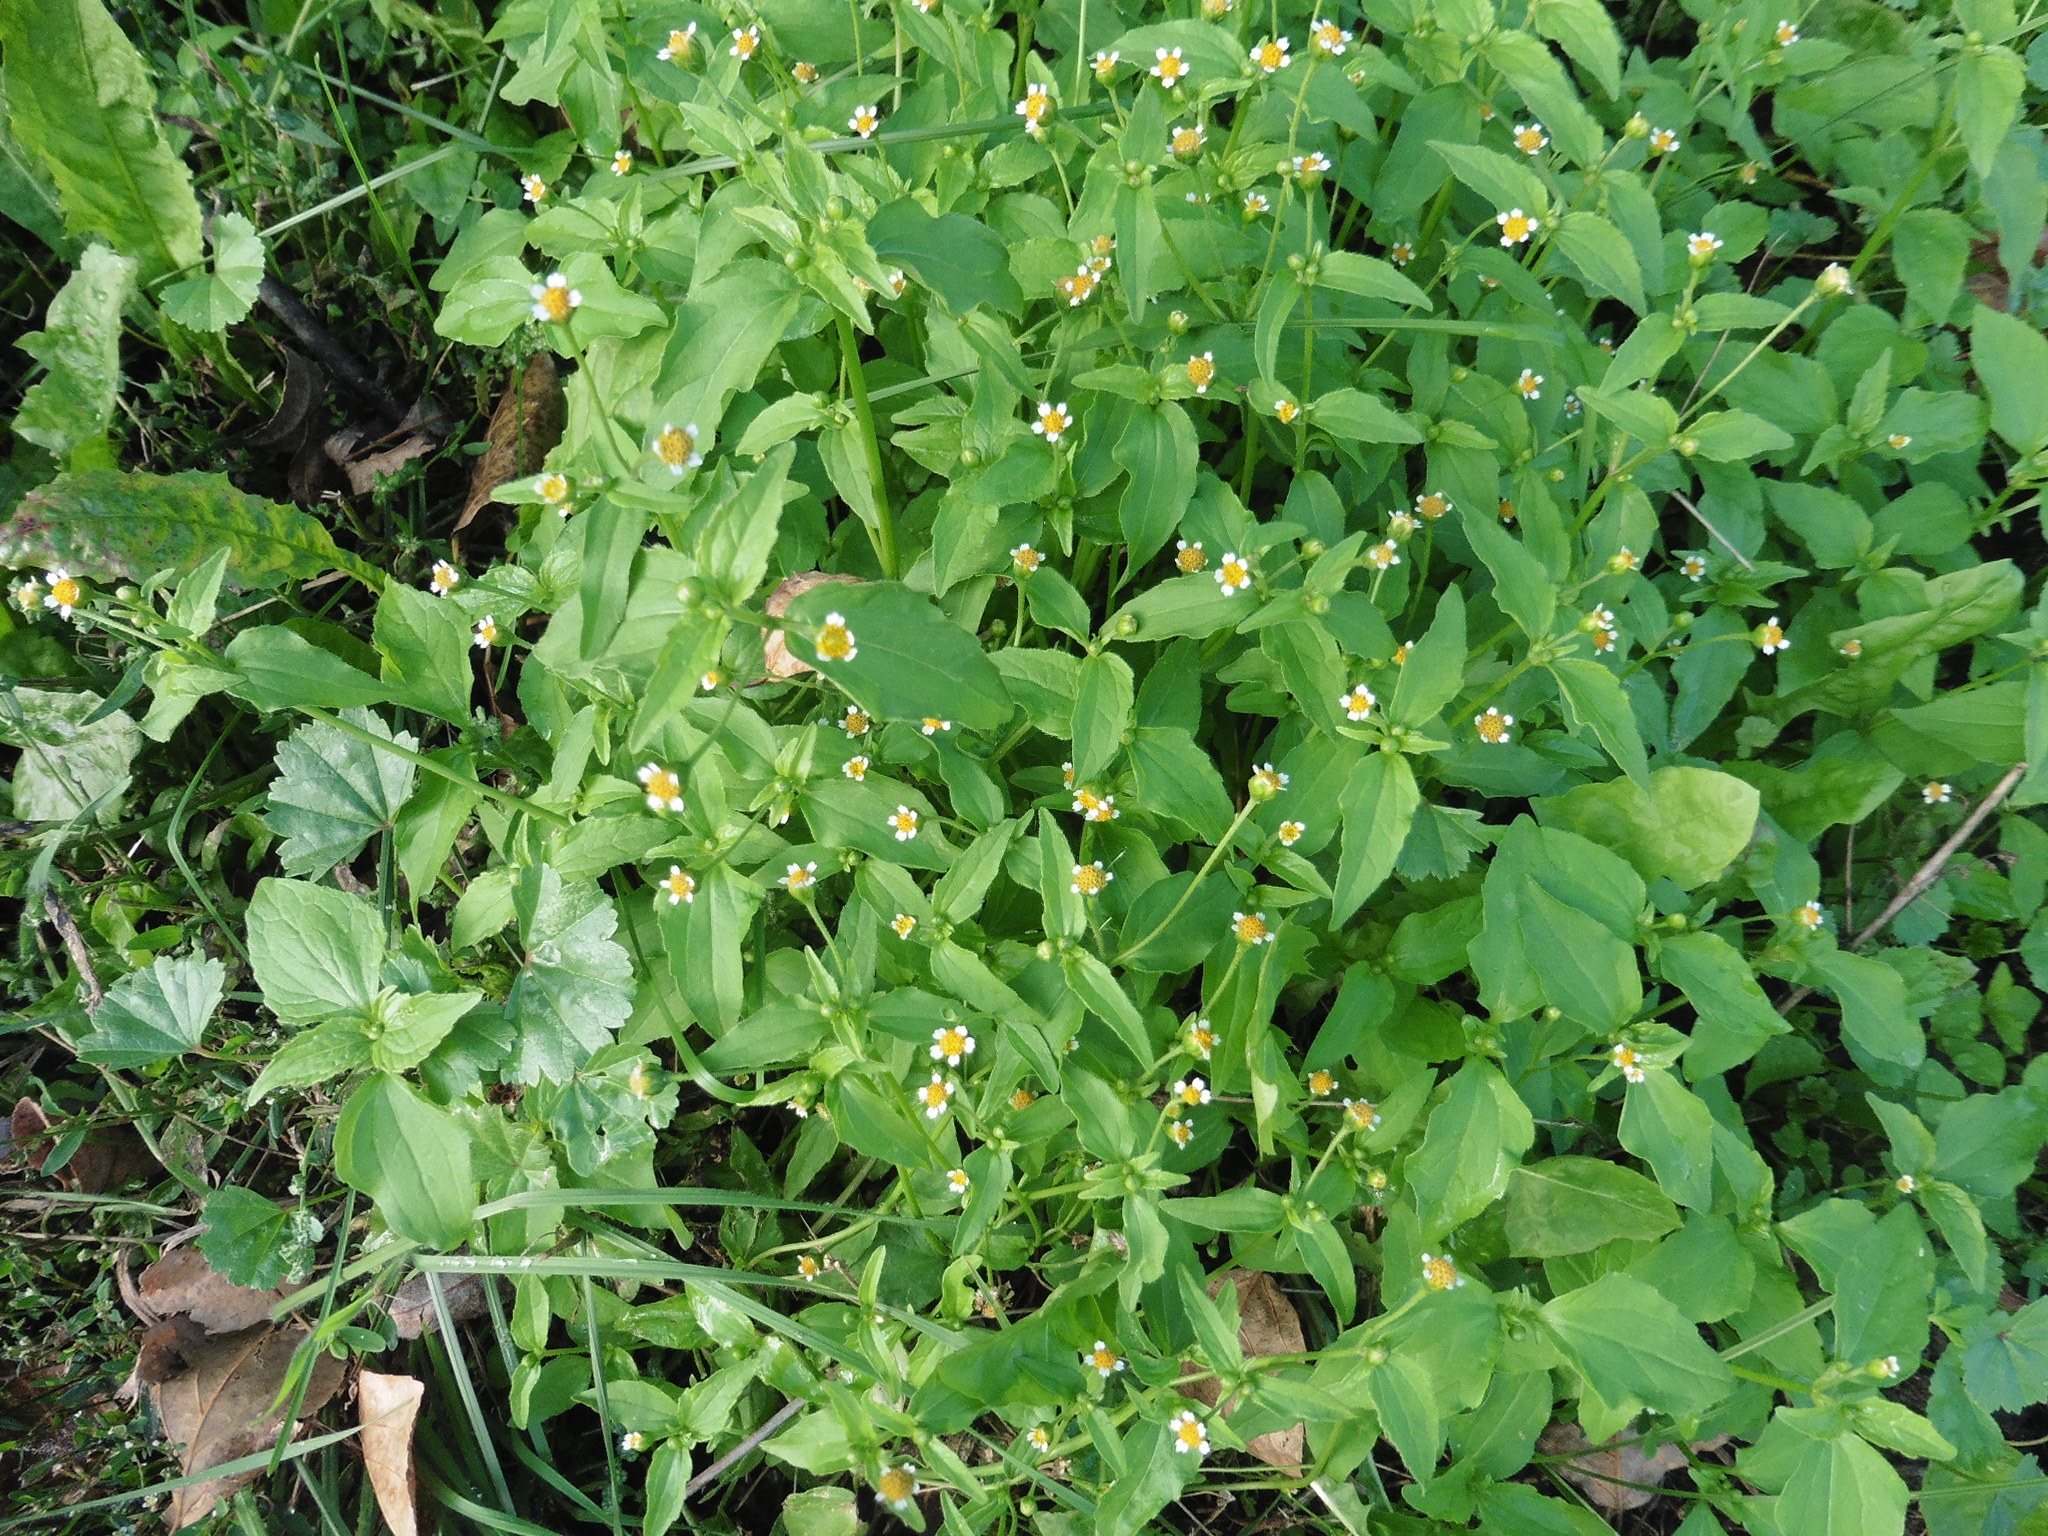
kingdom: Plantae
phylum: Tracheophyta
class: Magnoliopsida
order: Asterales
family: Asteraceae
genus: Galinsoga
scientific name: Galinsoga parviflora
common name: Gallant soldier
